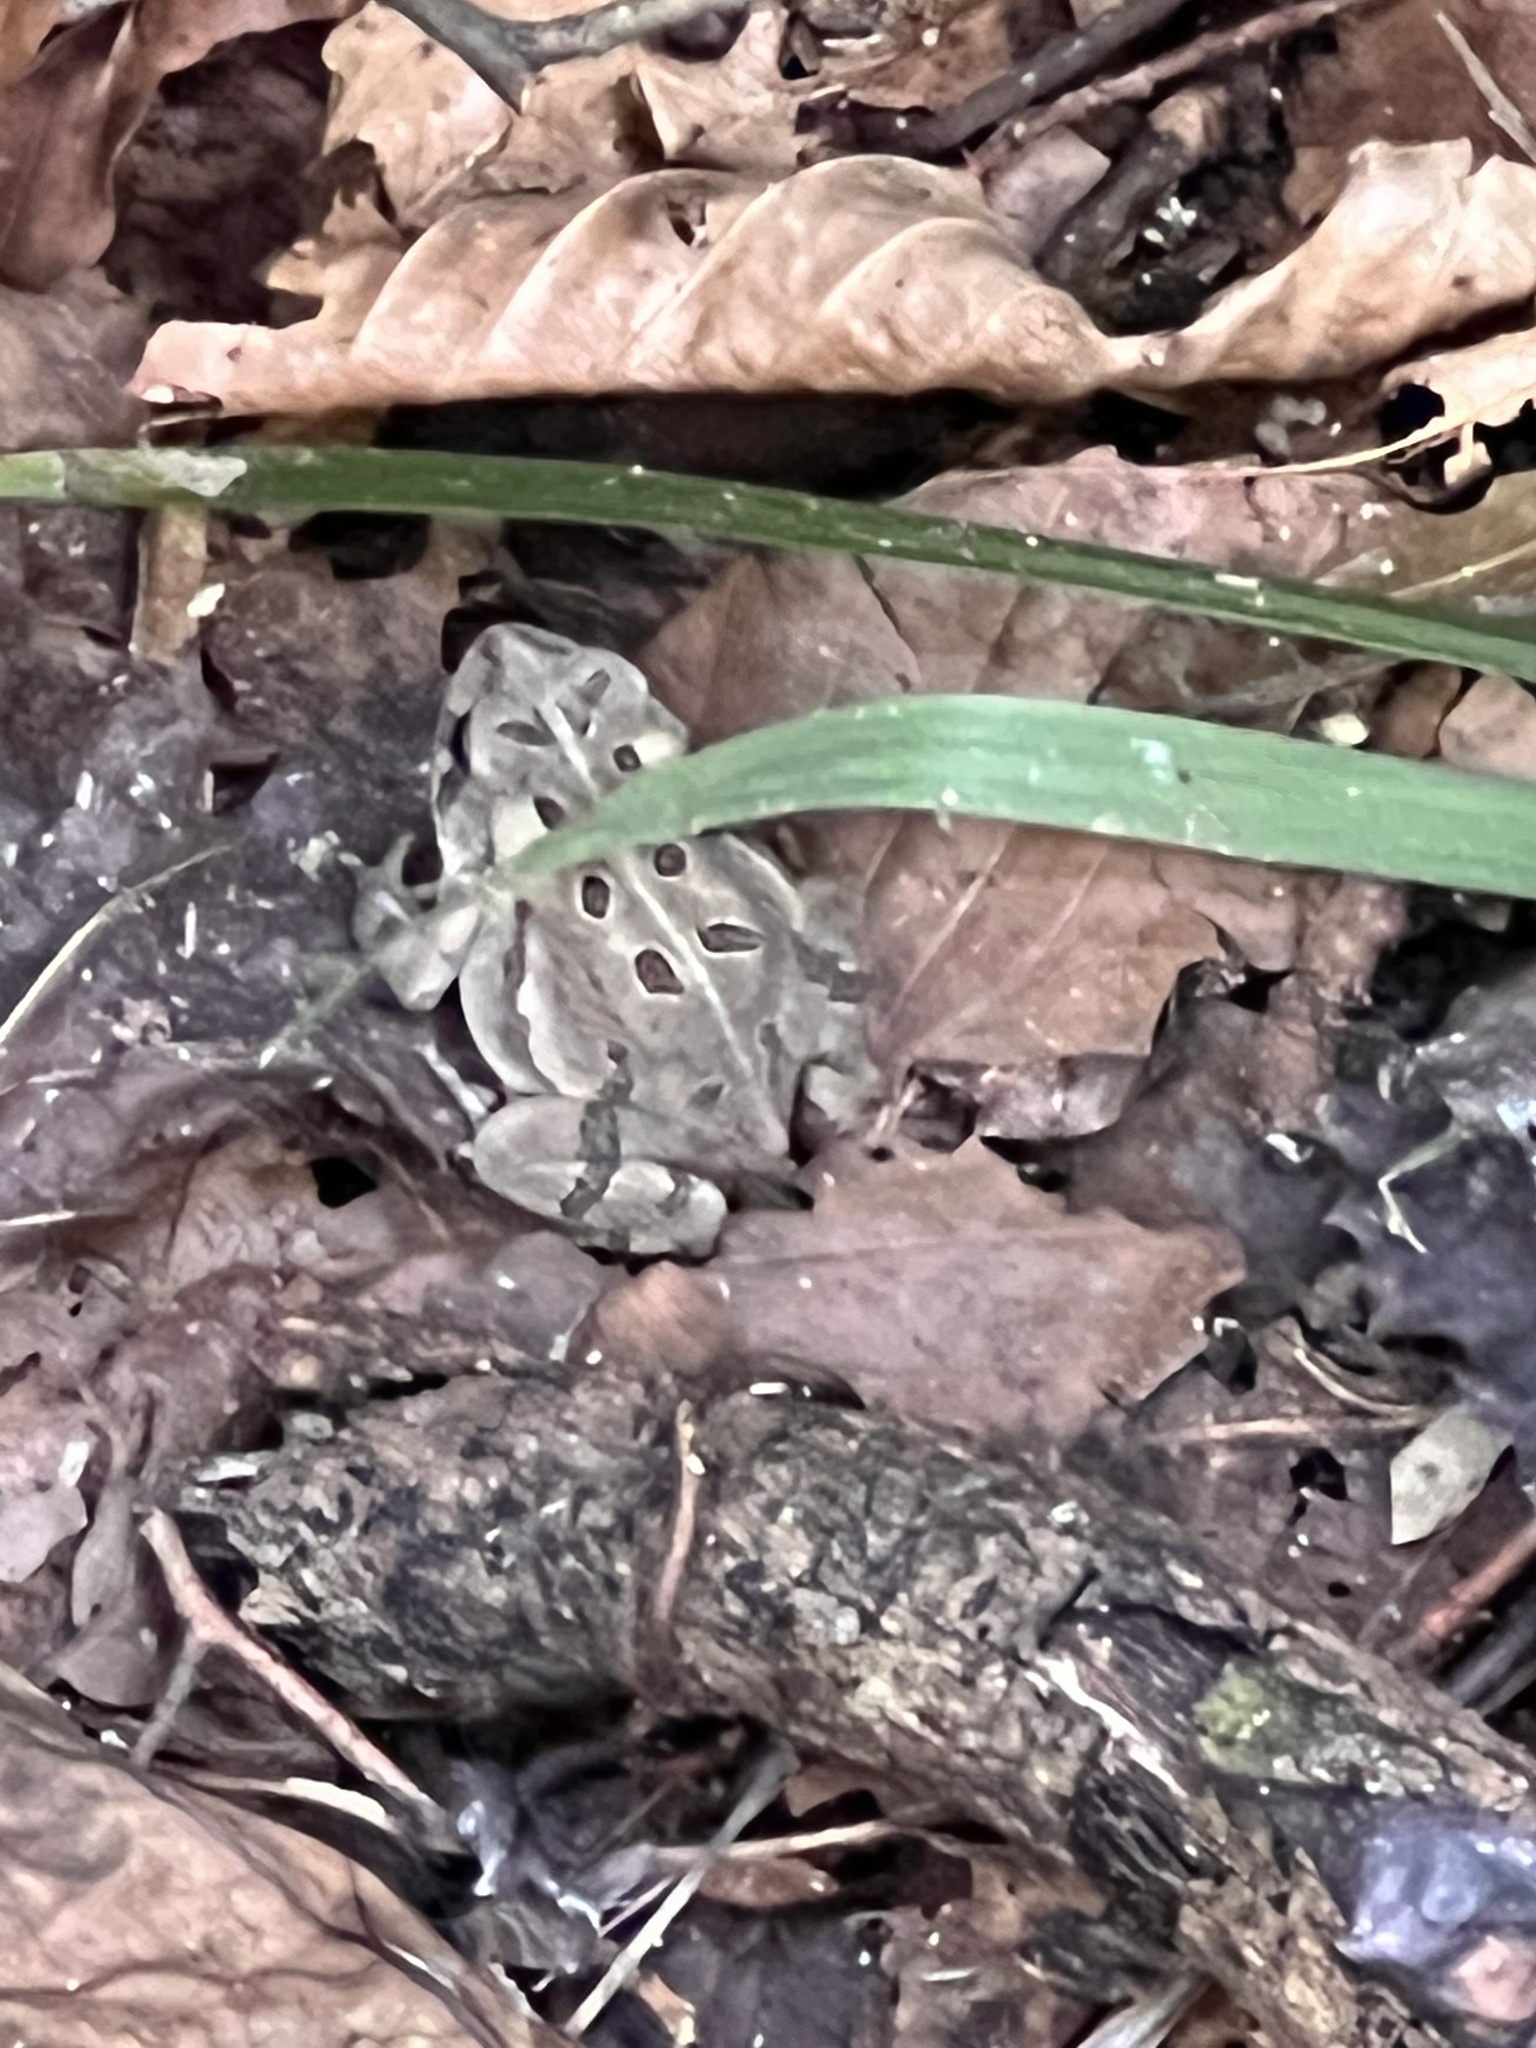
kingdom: Animalia
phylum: Chordata
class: Amphibia
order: Anura
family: Bufonidae
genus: Anaxyrus
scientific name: Anaxyrus fowleri
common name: Fowler's toad
